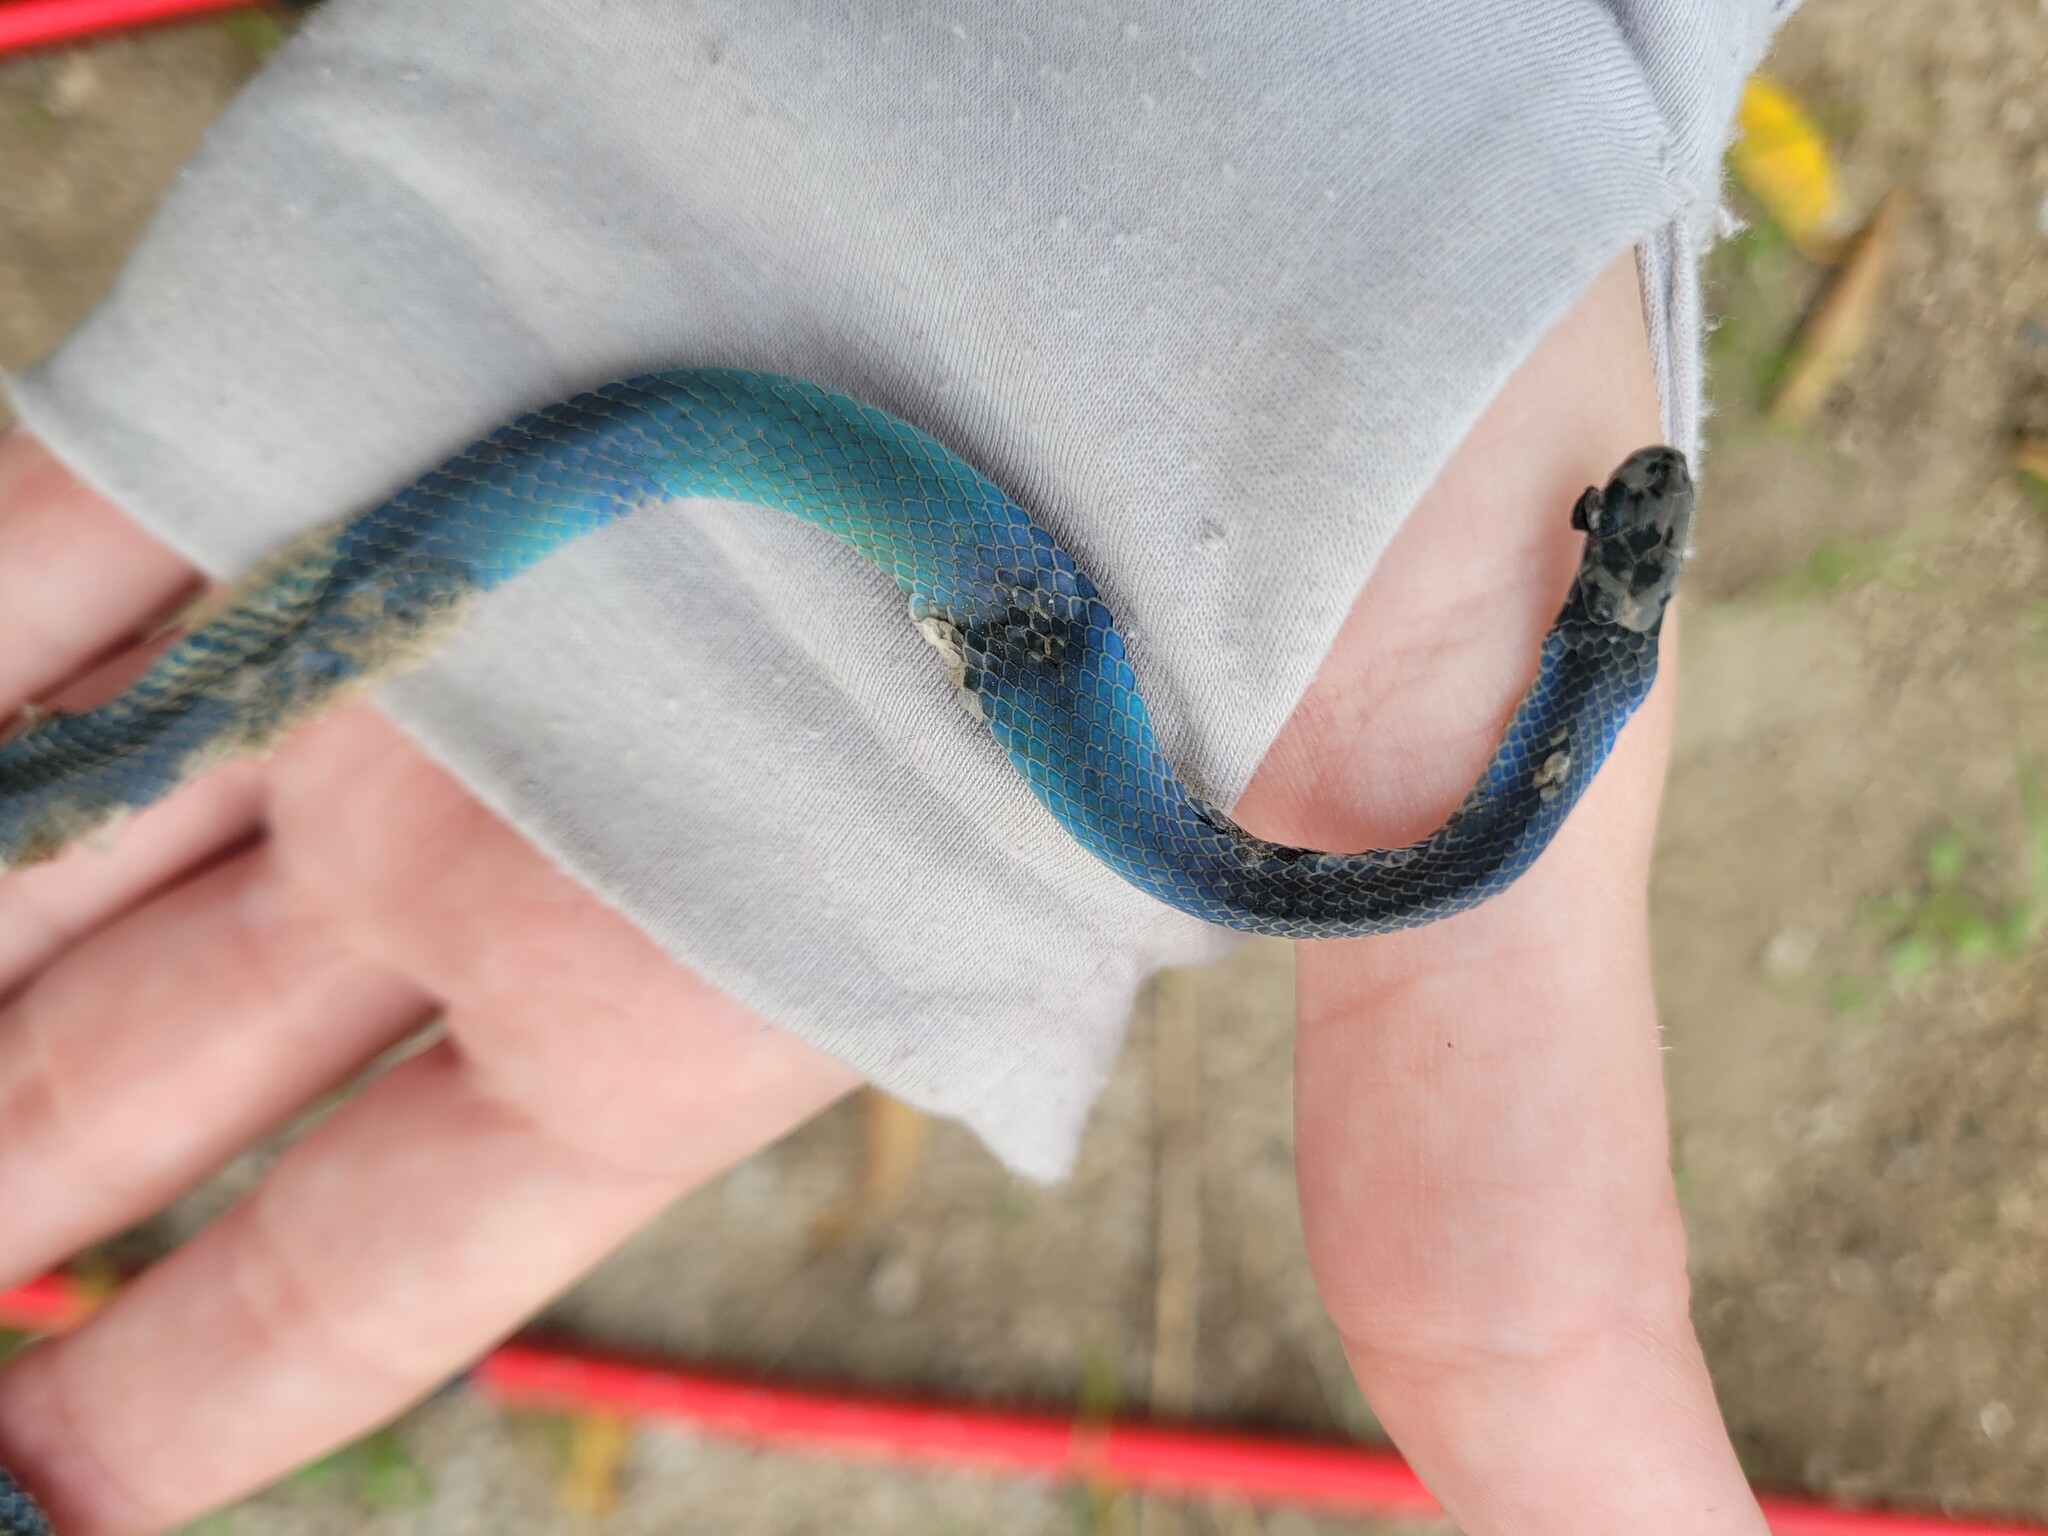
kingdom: Animalia
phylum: Chordata
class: Squamata
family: Colubridae
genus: Opheodrys
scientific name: Opheodrys vernalis
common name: Smooth green snake
